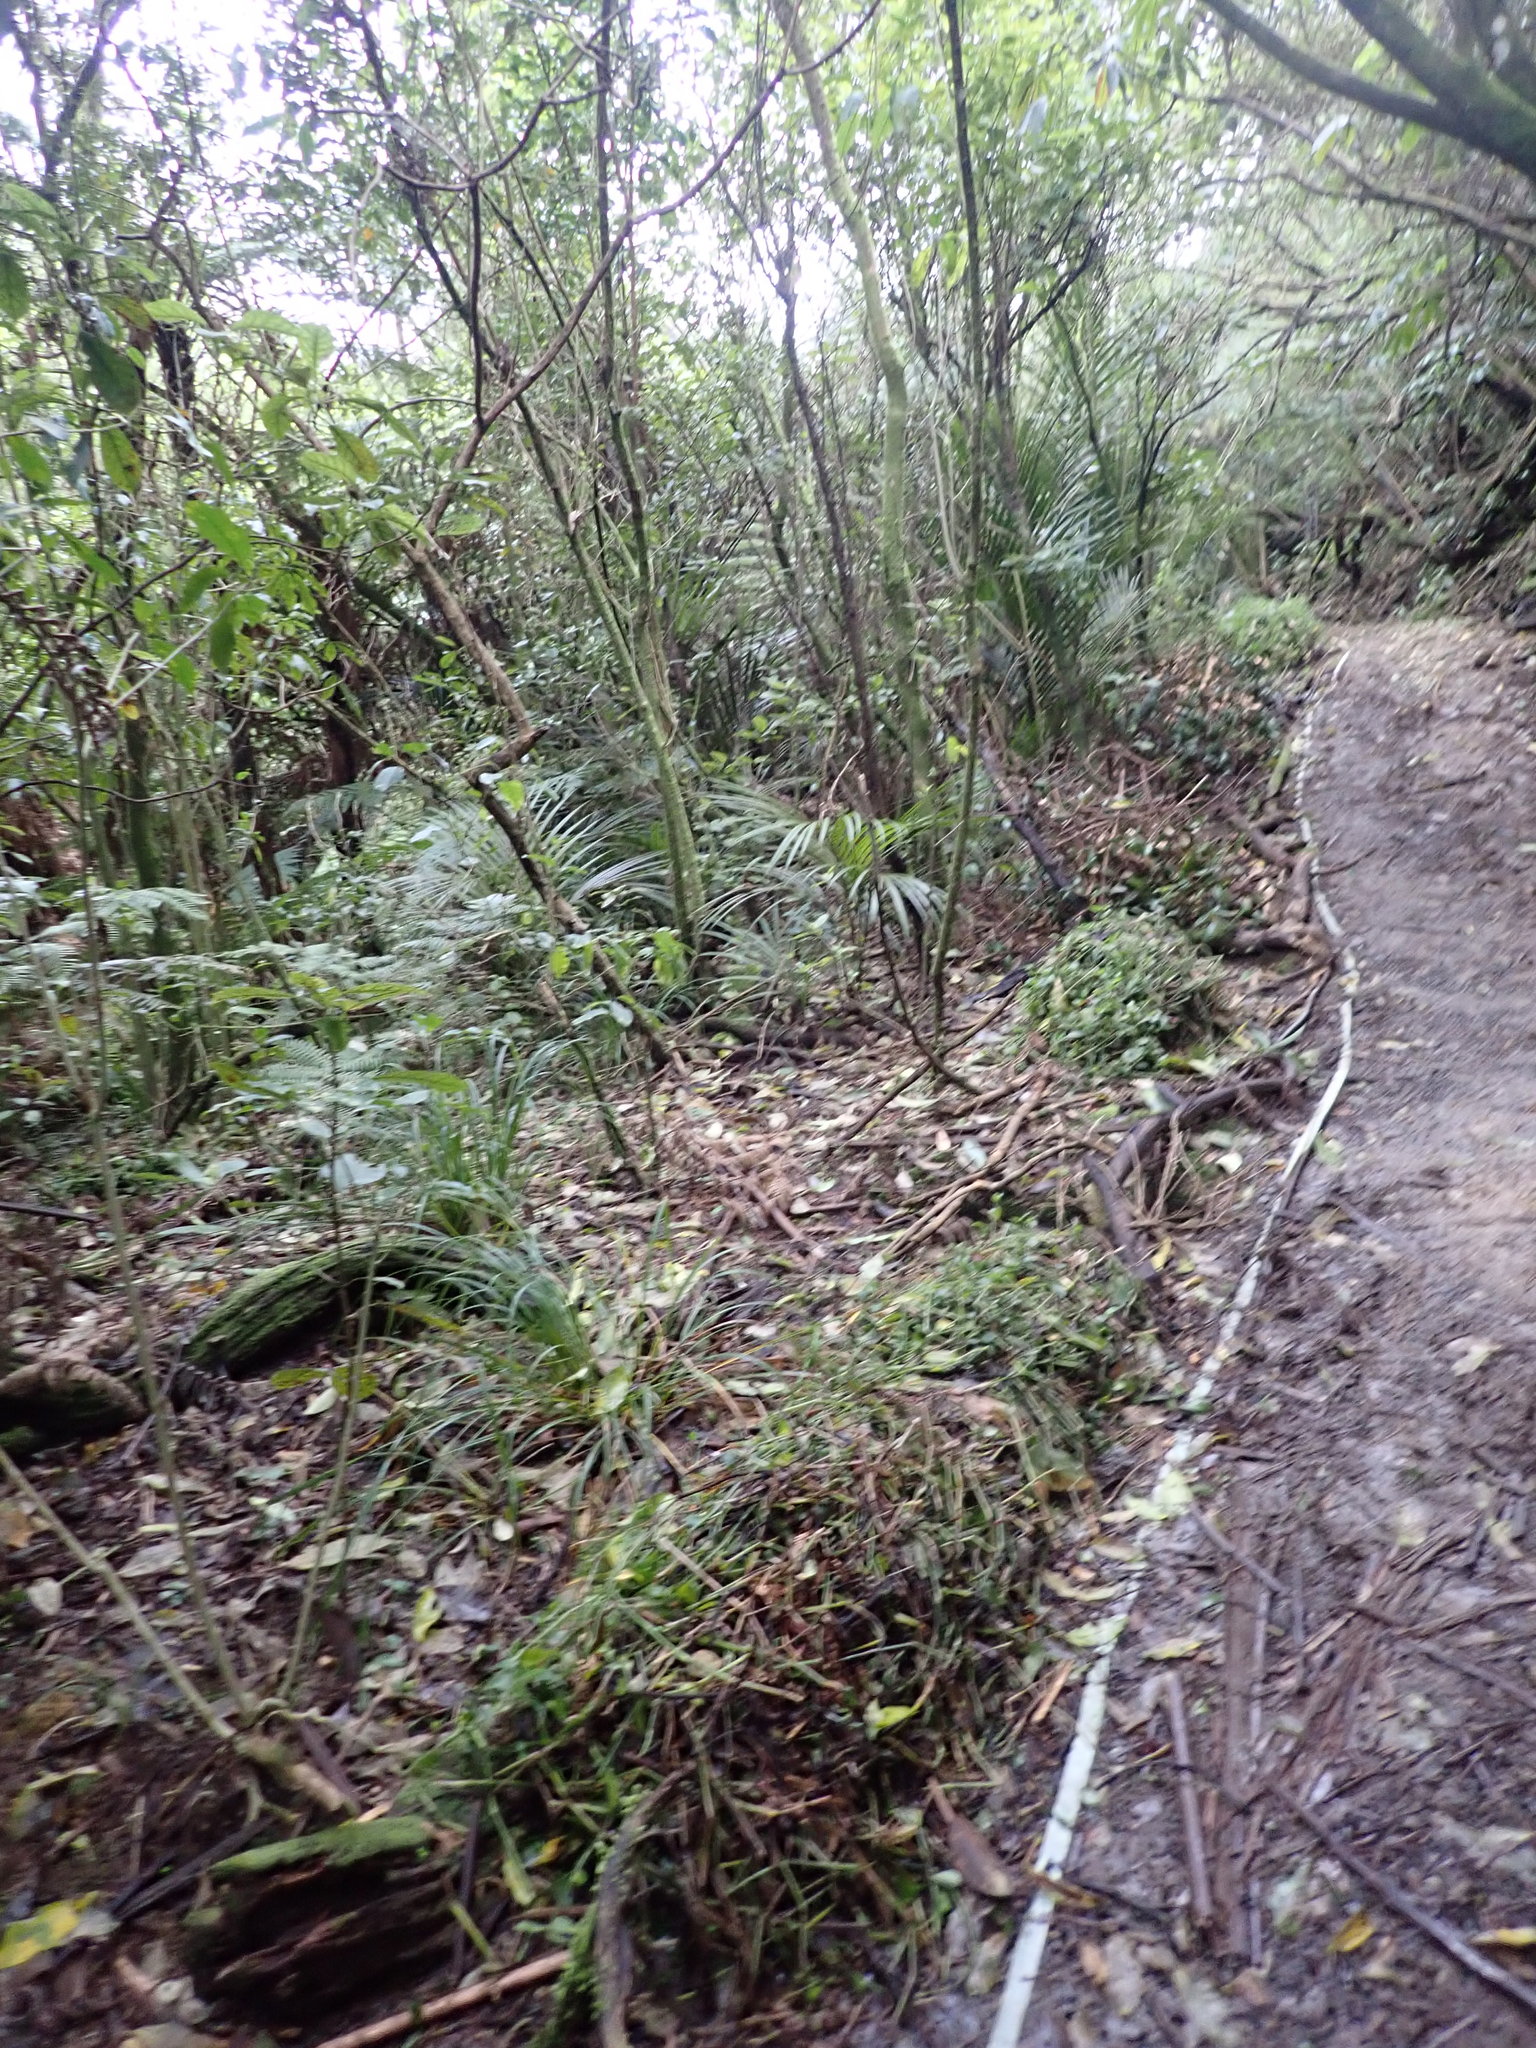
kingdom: Plantae
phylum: Tracheophyta
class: Liliopsida
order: Arecales
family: Arecaceae
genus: Rhopalostylis
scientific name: Rhopalostylis sapida
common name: Feather-duster palm
